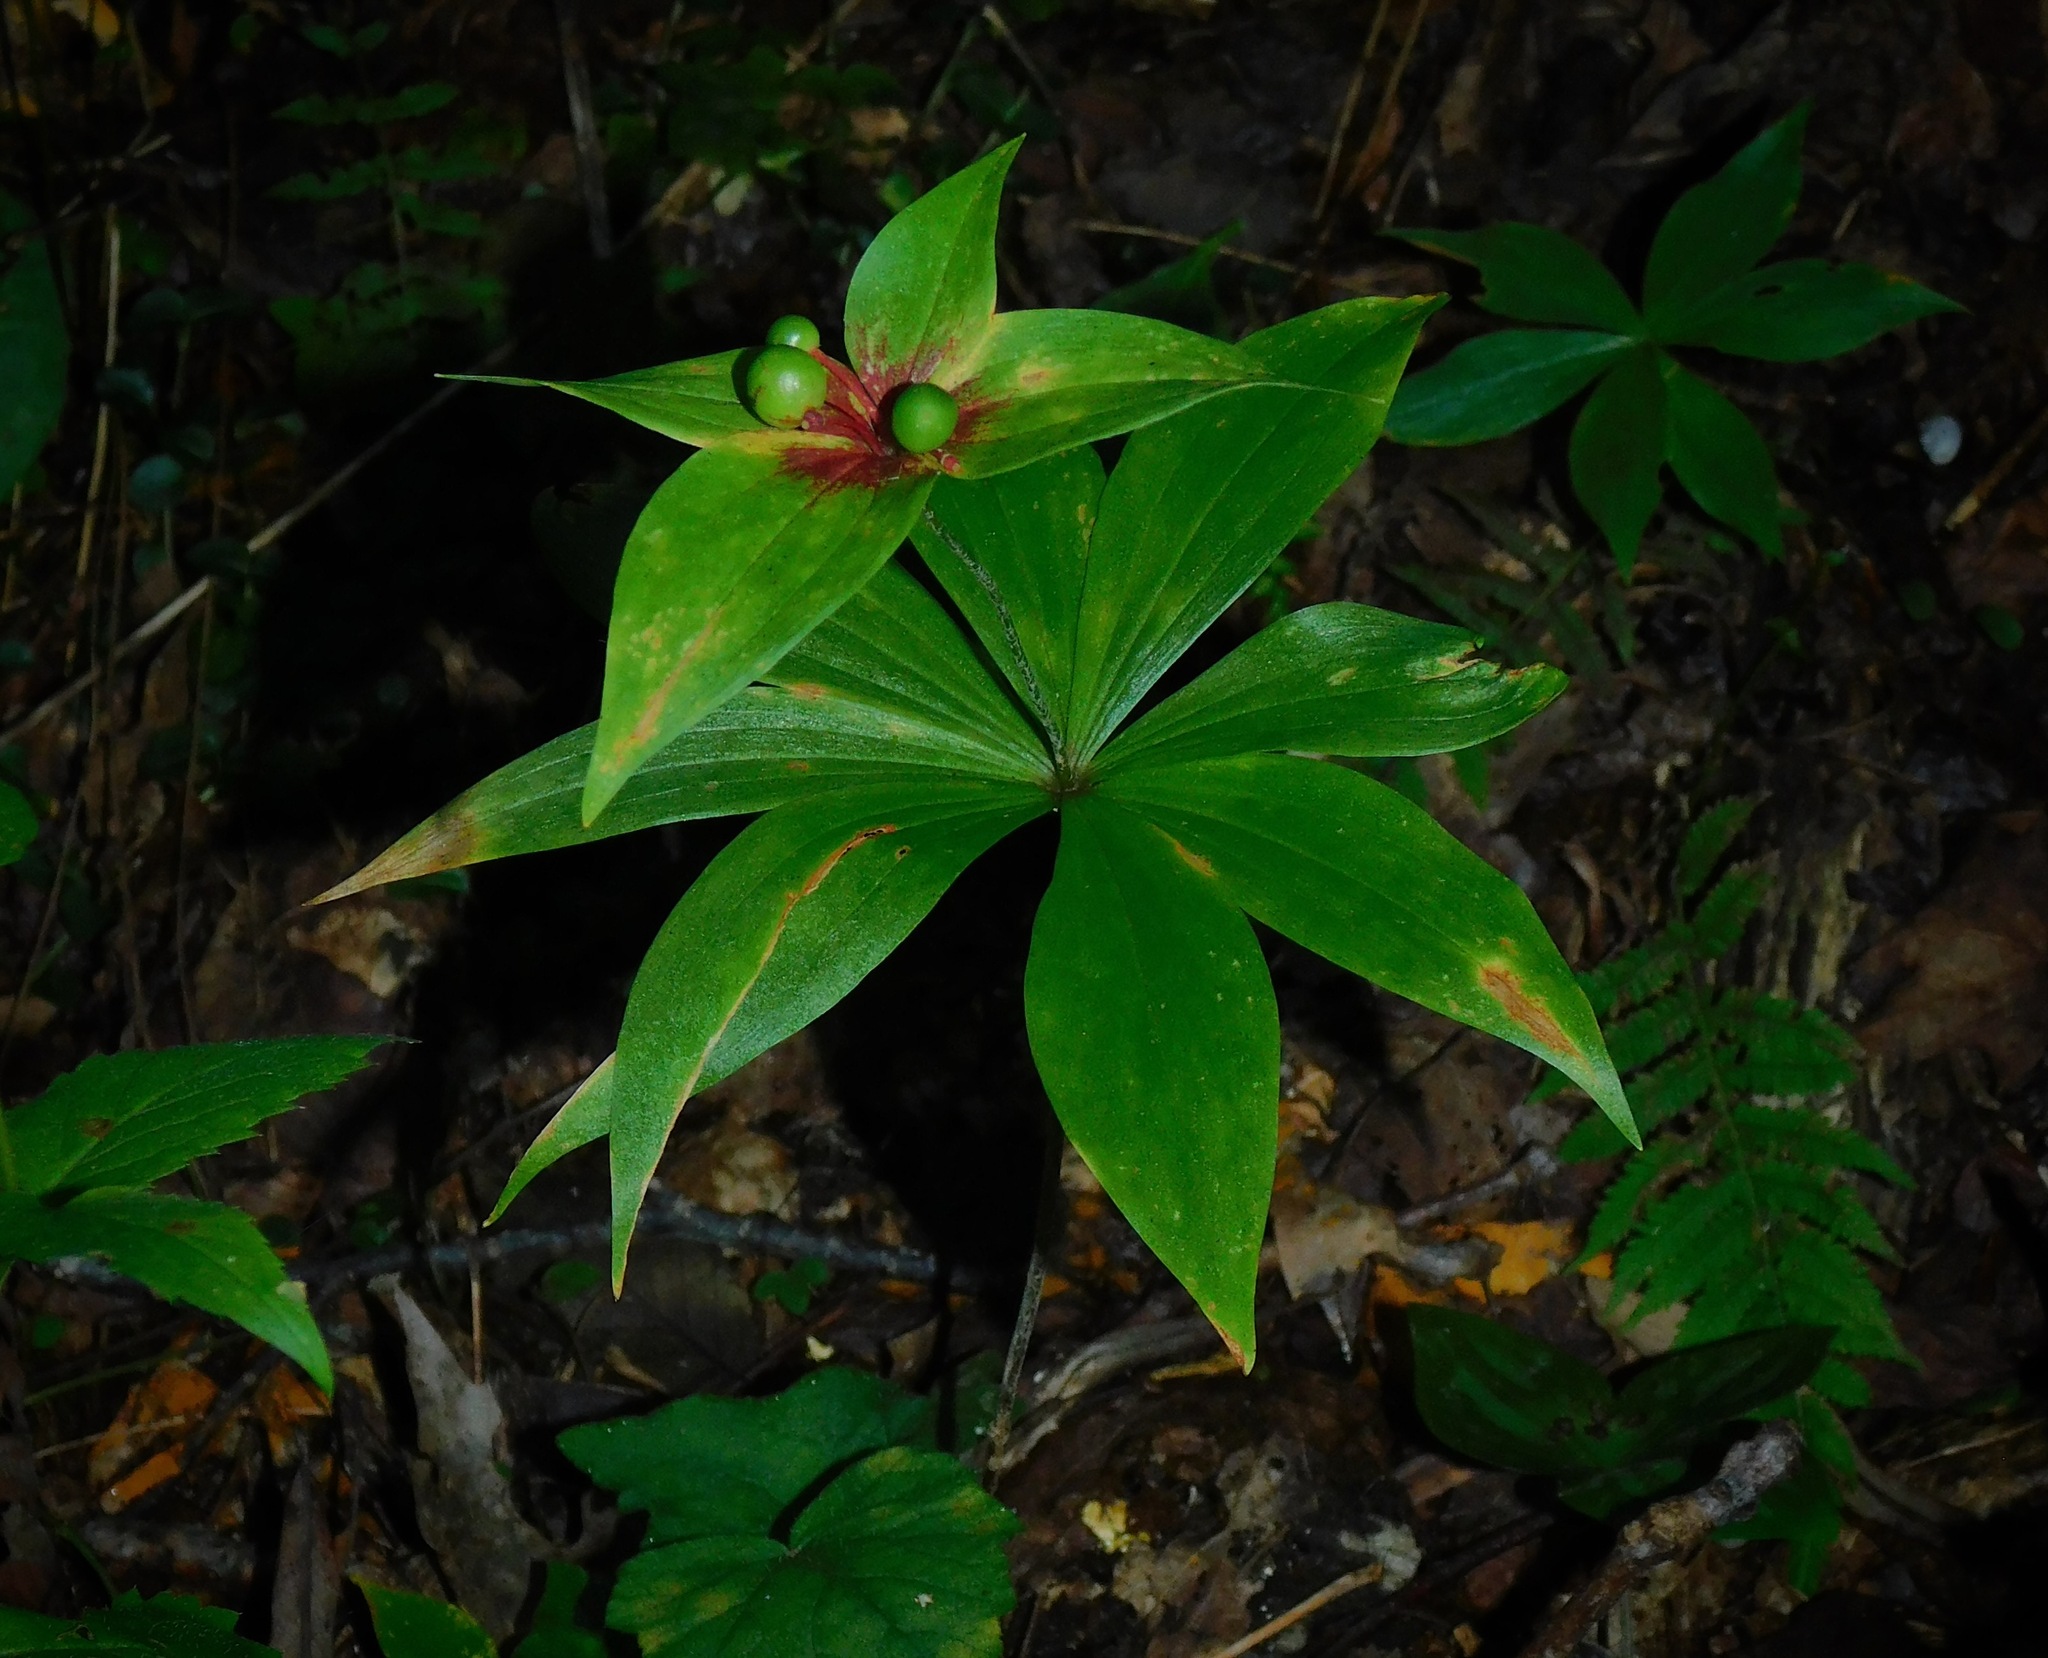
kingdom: Plantae
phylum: Tracheophyta
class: Liliopsida
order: Liliales
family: Liliaceae
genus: Medeola
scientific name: Medeola virginiana
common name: Indian cucumber-root
